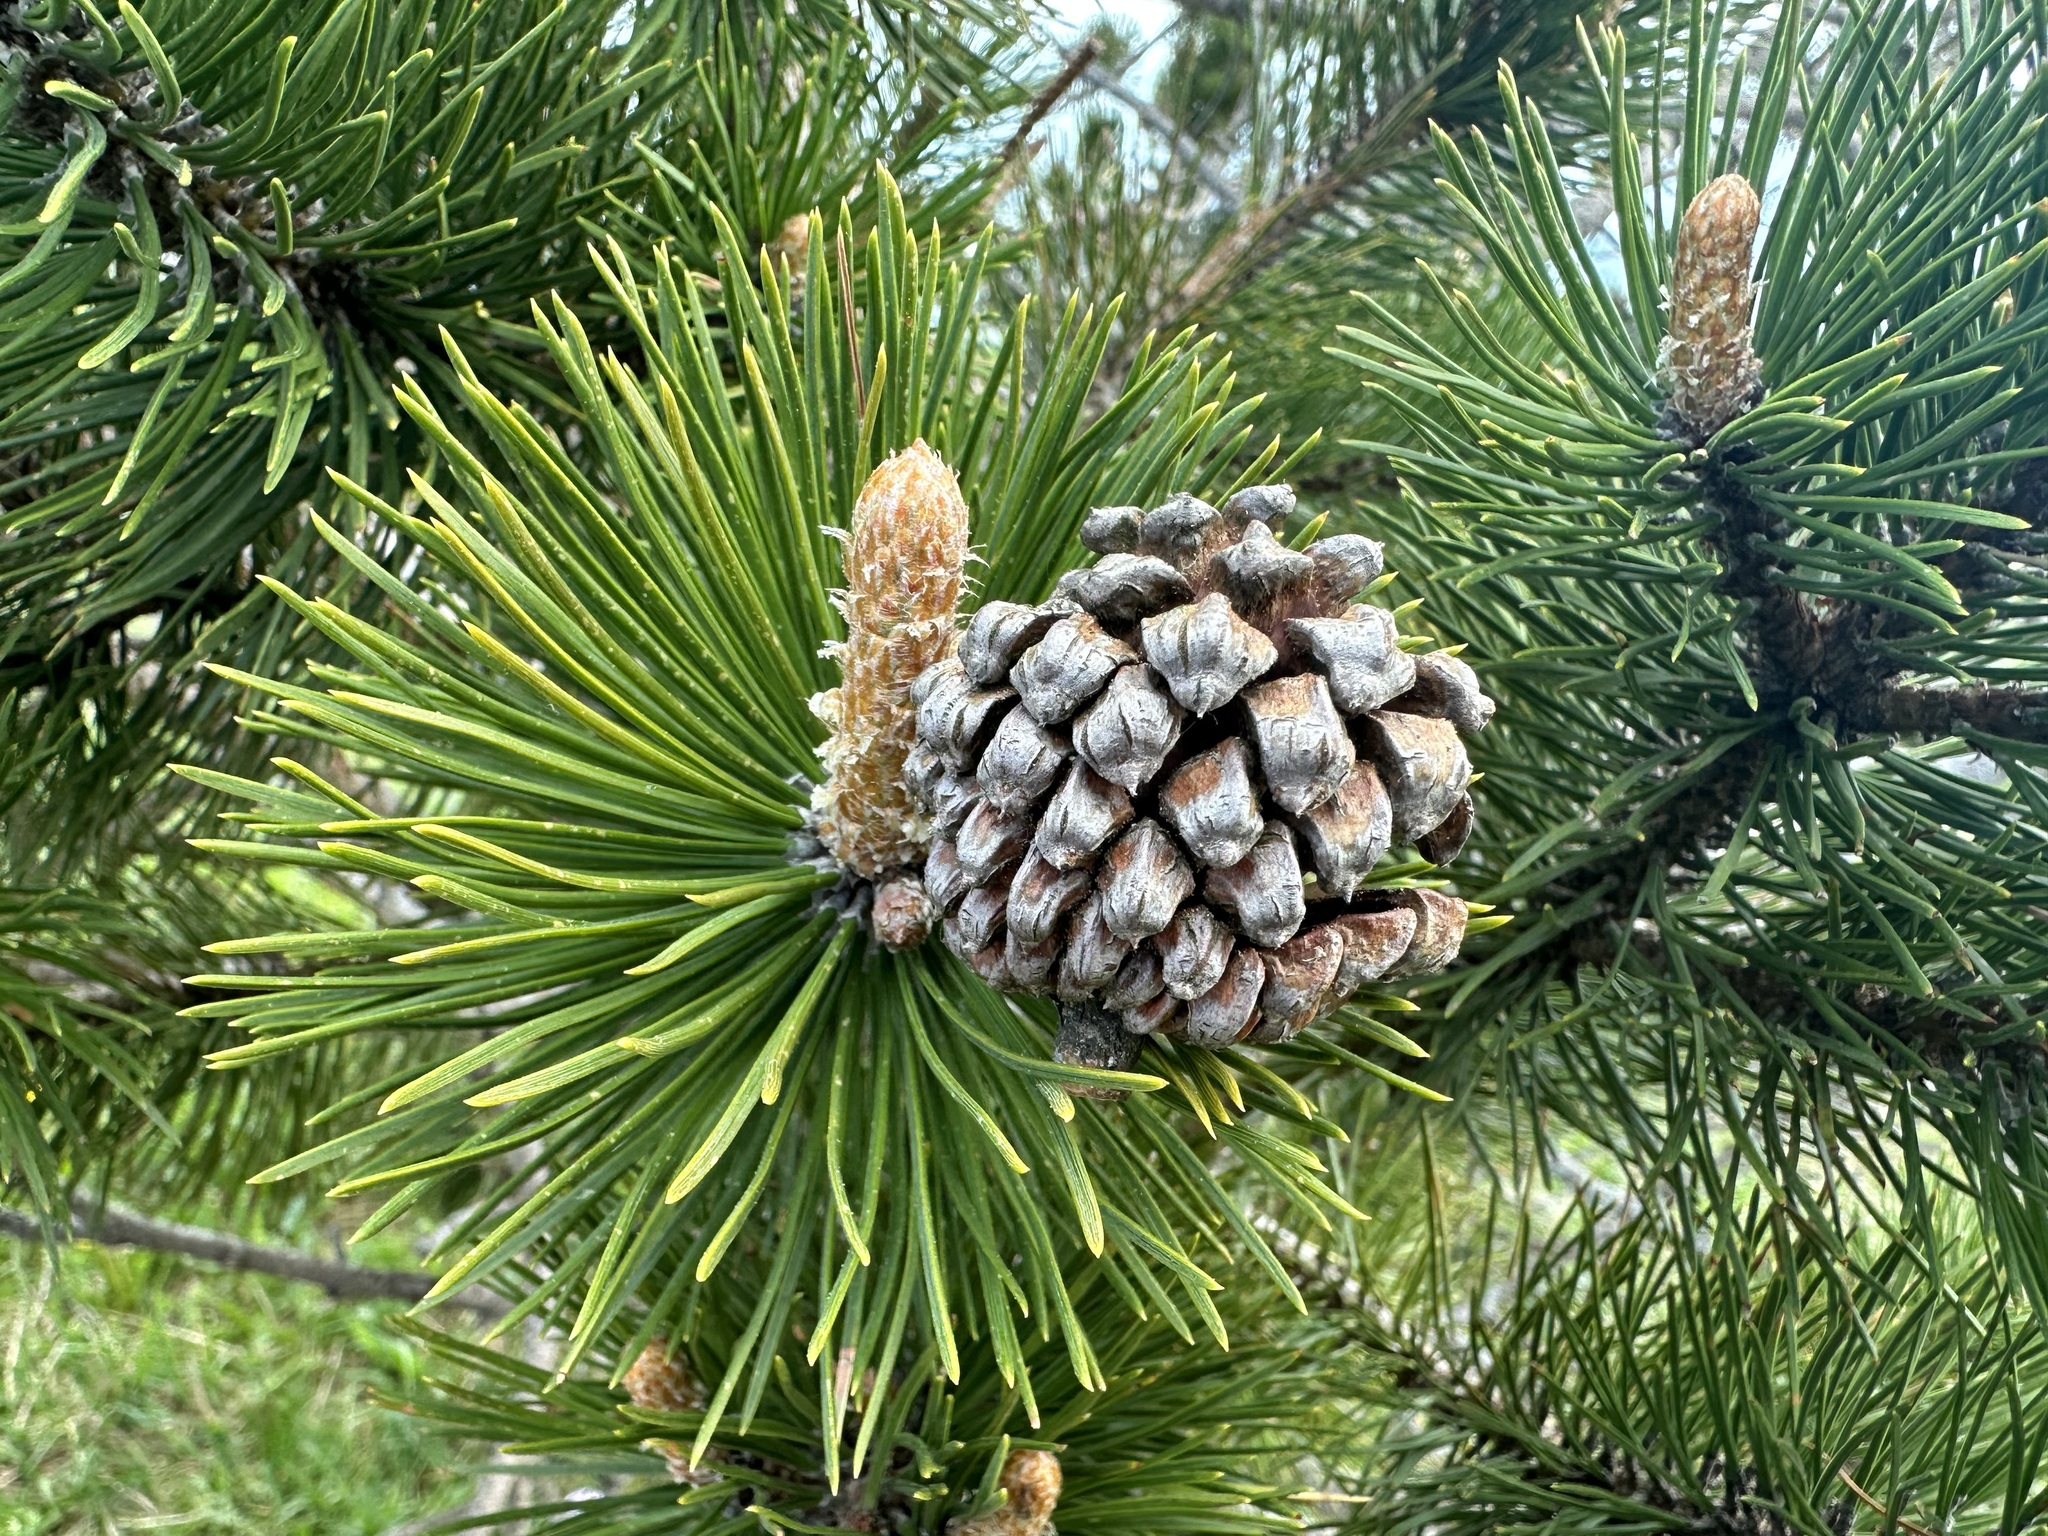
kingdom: Plantae
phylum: Tracheophyta
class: Pinopsida
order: Pinales
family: Pinaceae
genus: Pinus
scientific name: Pinus uncinata
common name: Mountain pine
